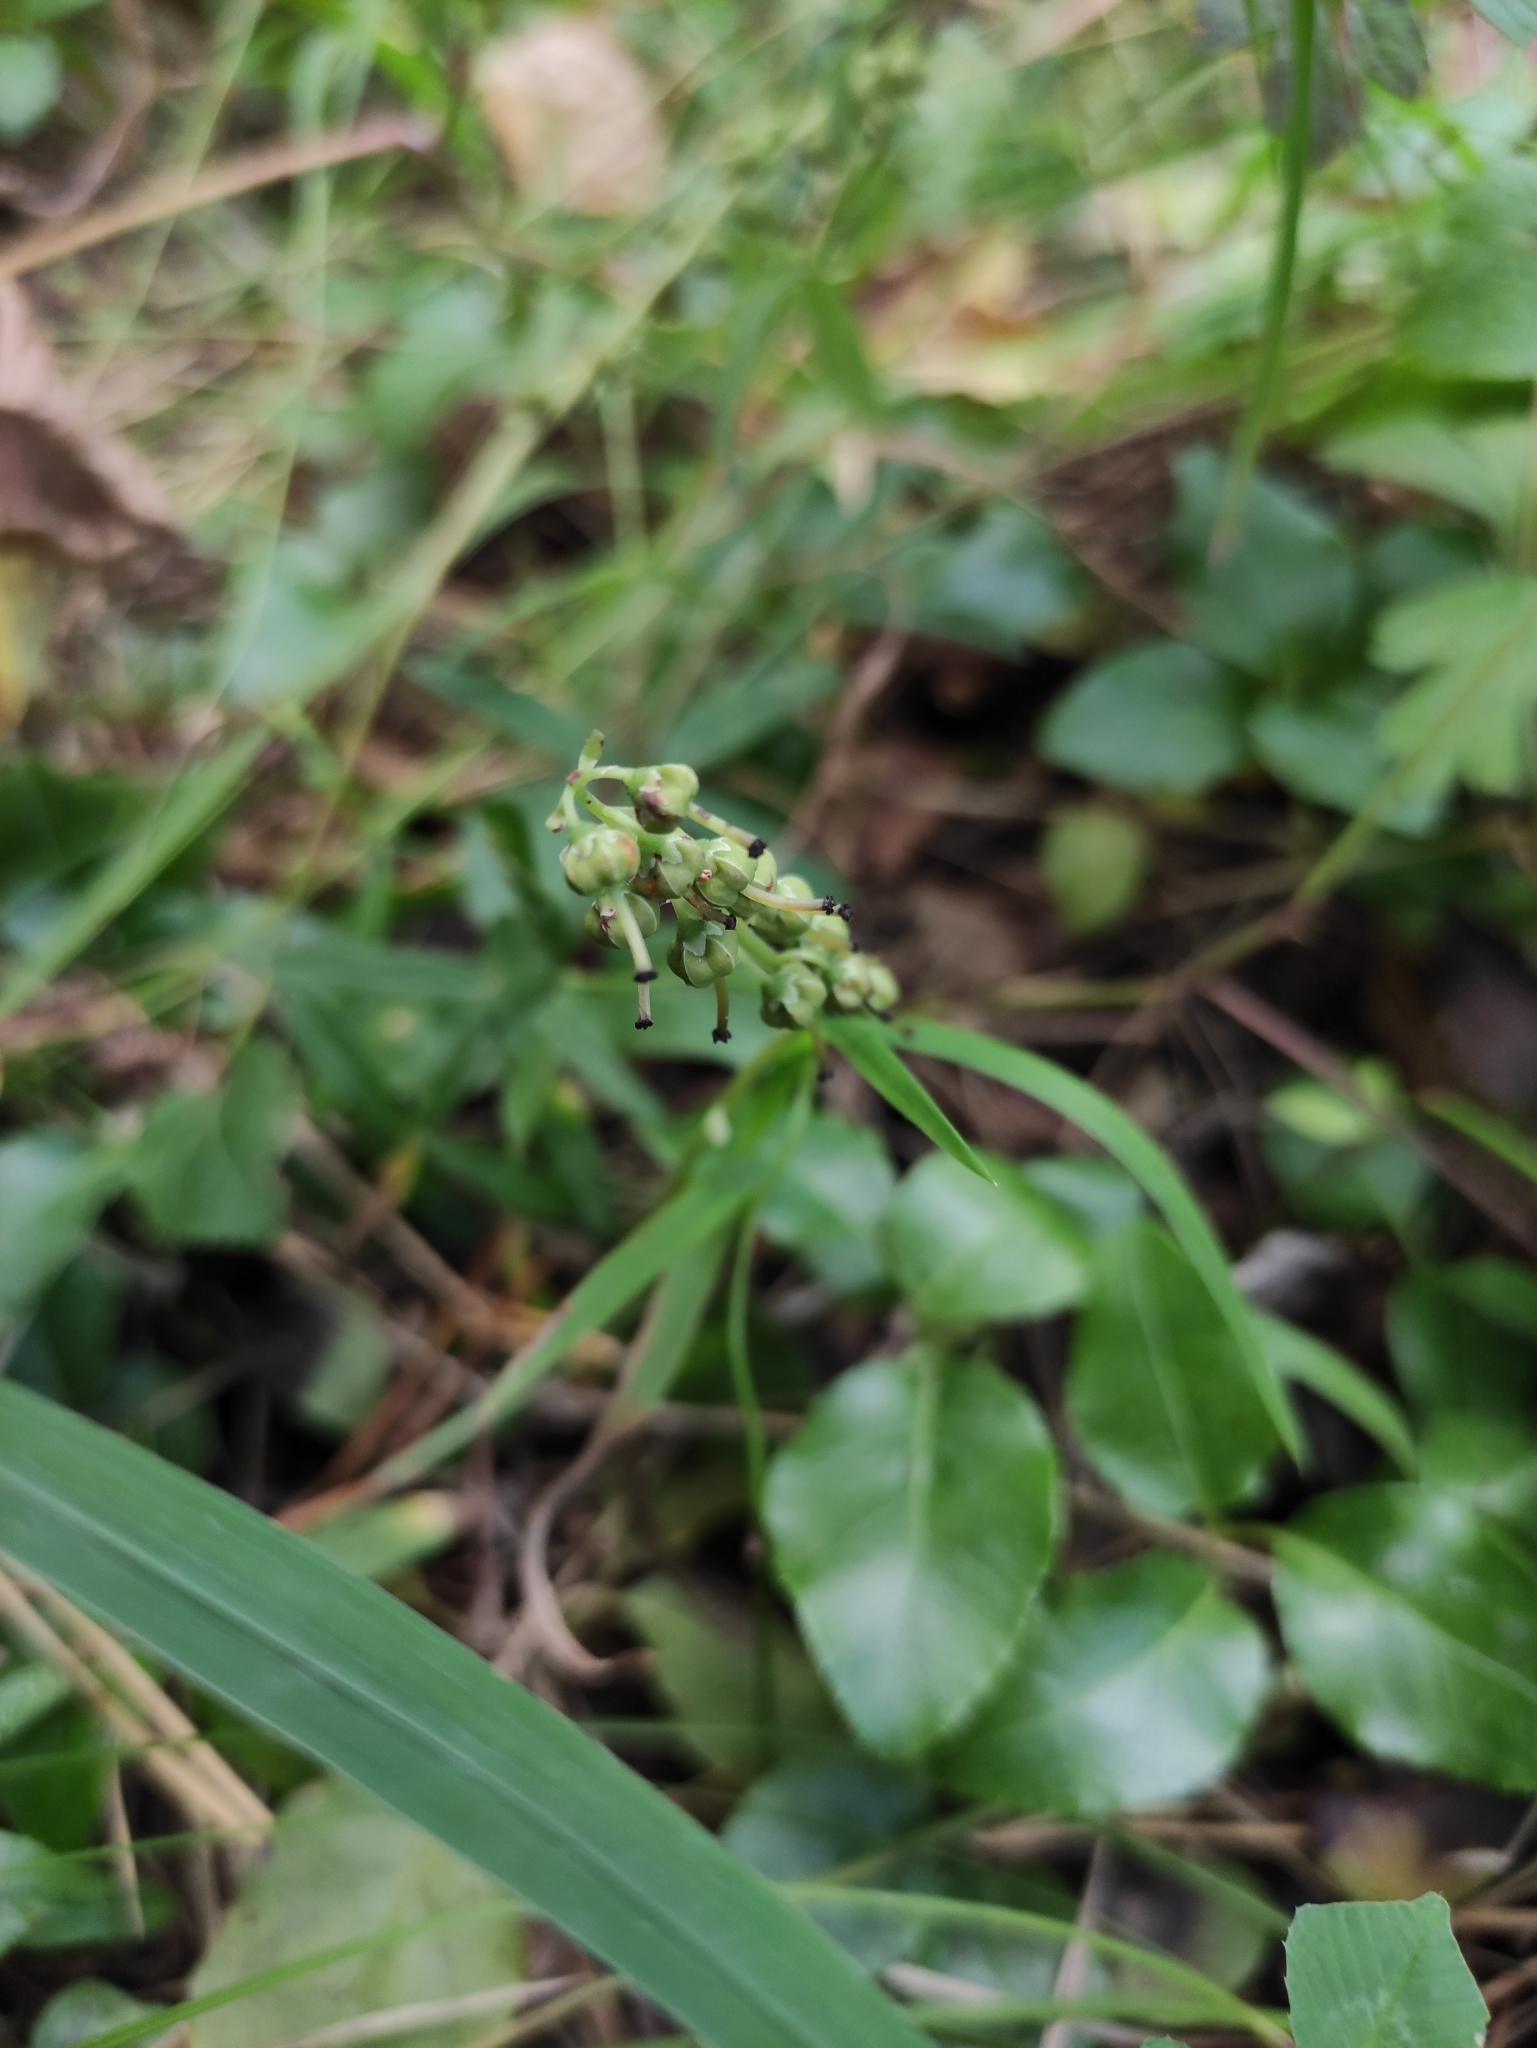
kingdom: Plantae
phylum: Tracheophyta
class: Magnoliopsida
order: Ericales
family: Ericaceae
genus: Orthilia
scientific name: Orthilia secunda
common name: One-sided orthilia
